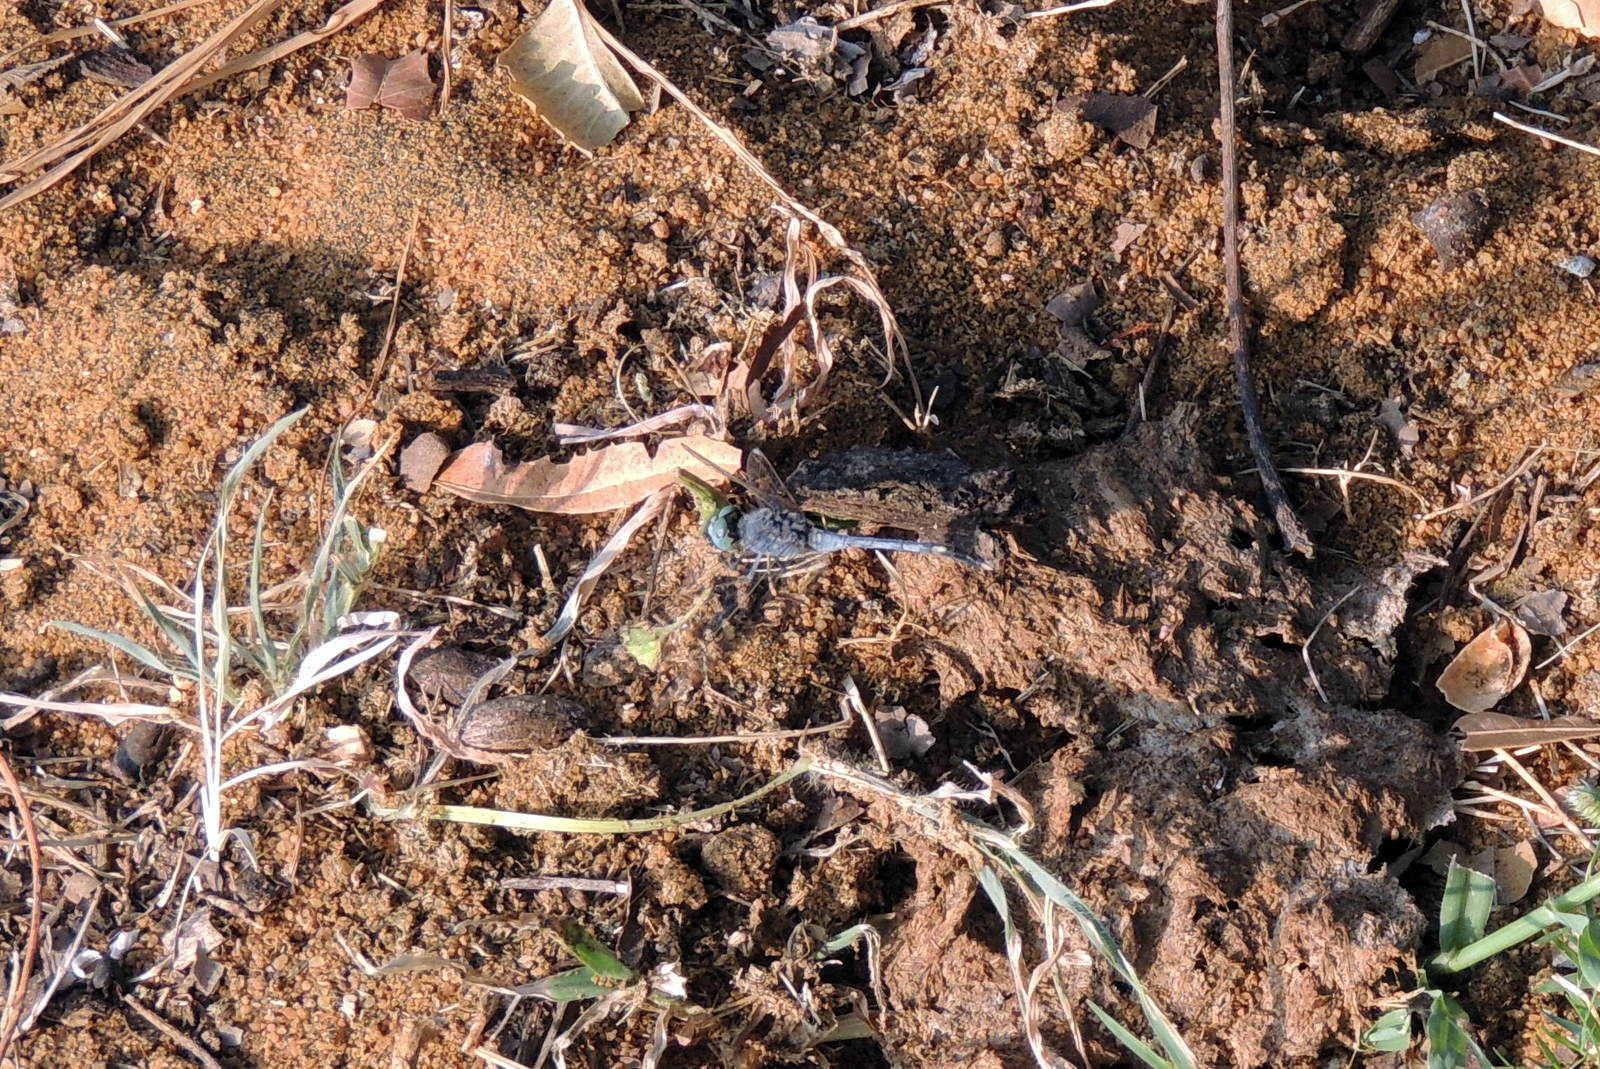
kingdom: Animalia
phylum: Arthropoda
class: Insecta
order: Odonata
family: Libellulidae
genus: Diplacodes
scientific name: Diplacodes trivialis
